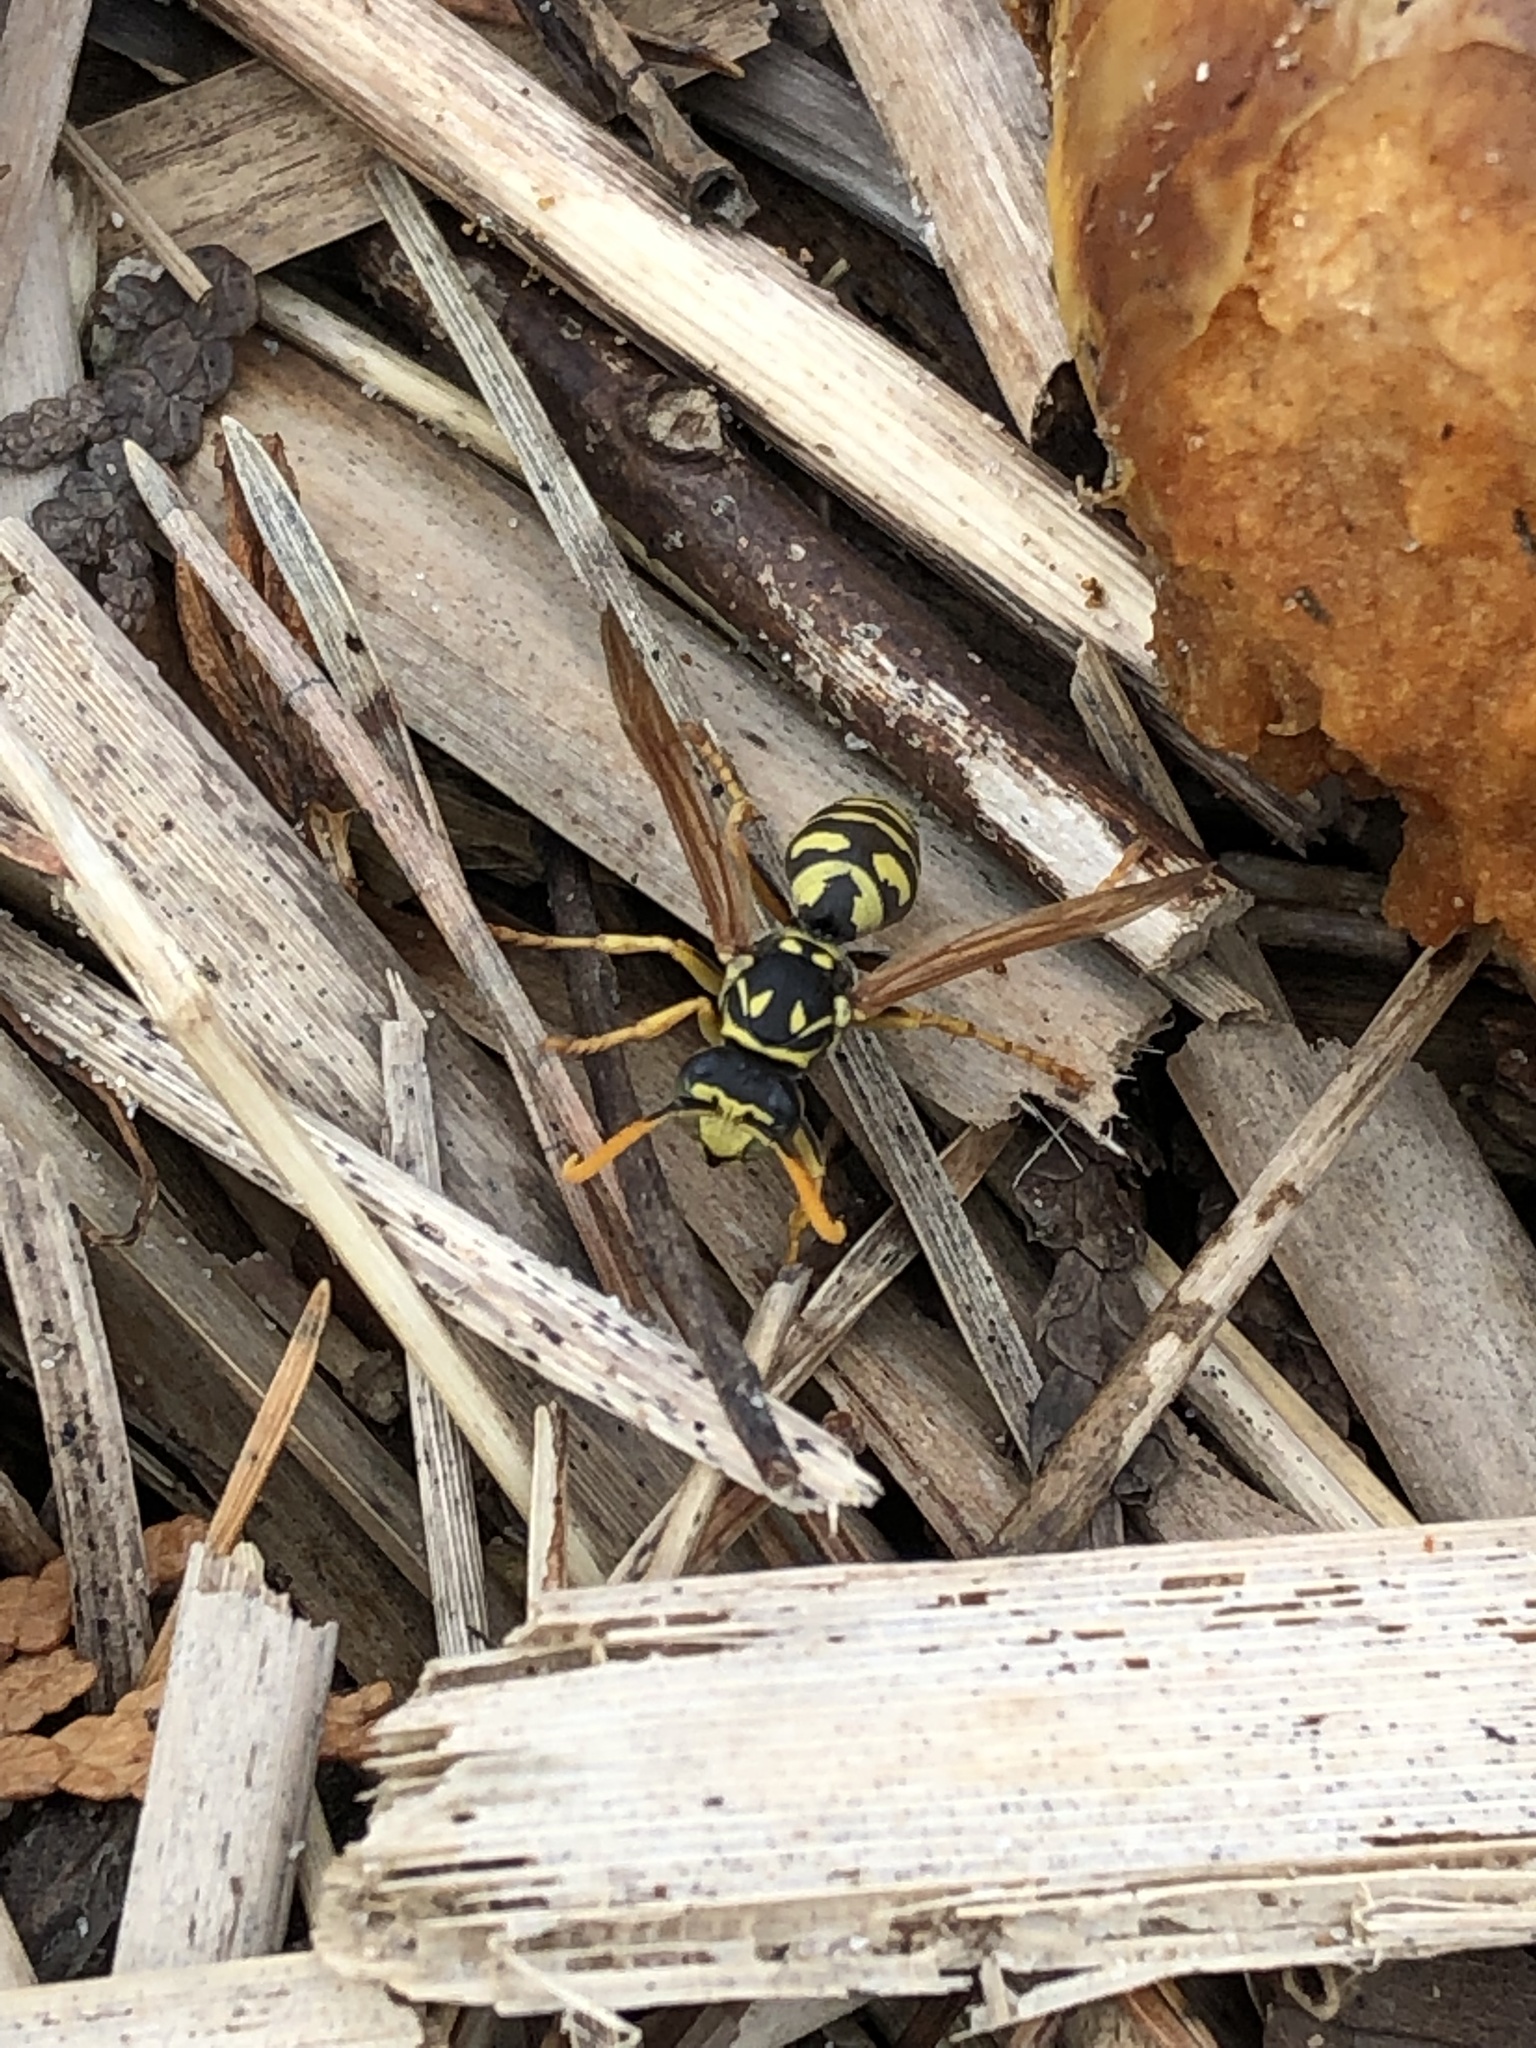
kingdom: Animalia
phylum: Arthropoda
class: Insecta
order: Hymenoptera
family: Eumenidae
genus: Polistes
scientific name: Polistes dominula
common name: Paper wasp
